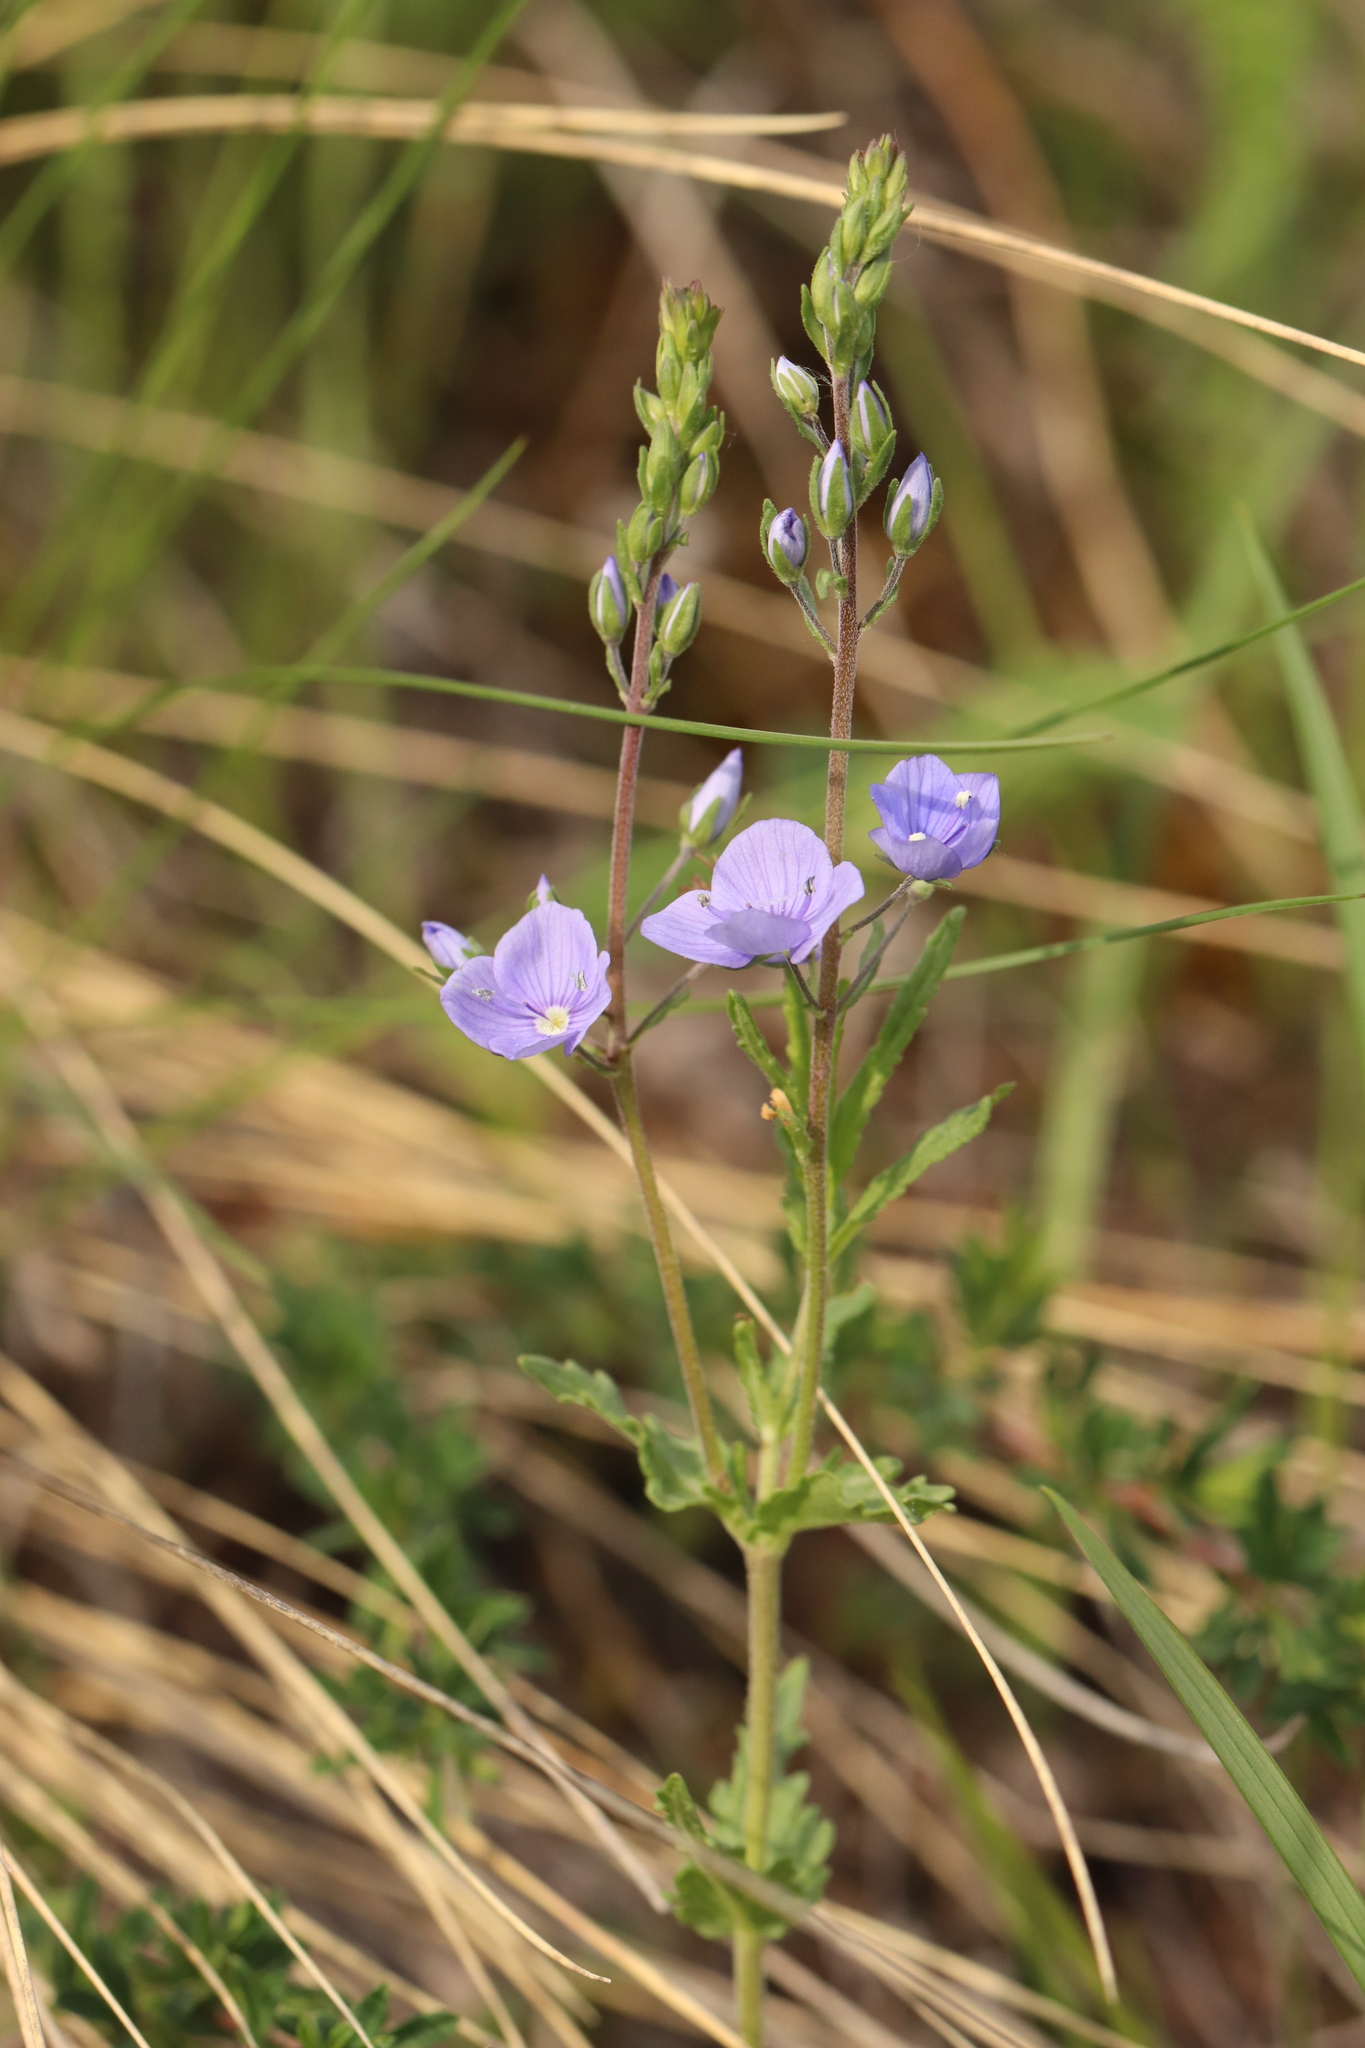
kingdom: Plantae
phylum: Tracheophyta
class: Magnoliopsida
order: Lamiales
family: Plantaginaceae
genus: Veronica
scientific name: Veronica krylovii
